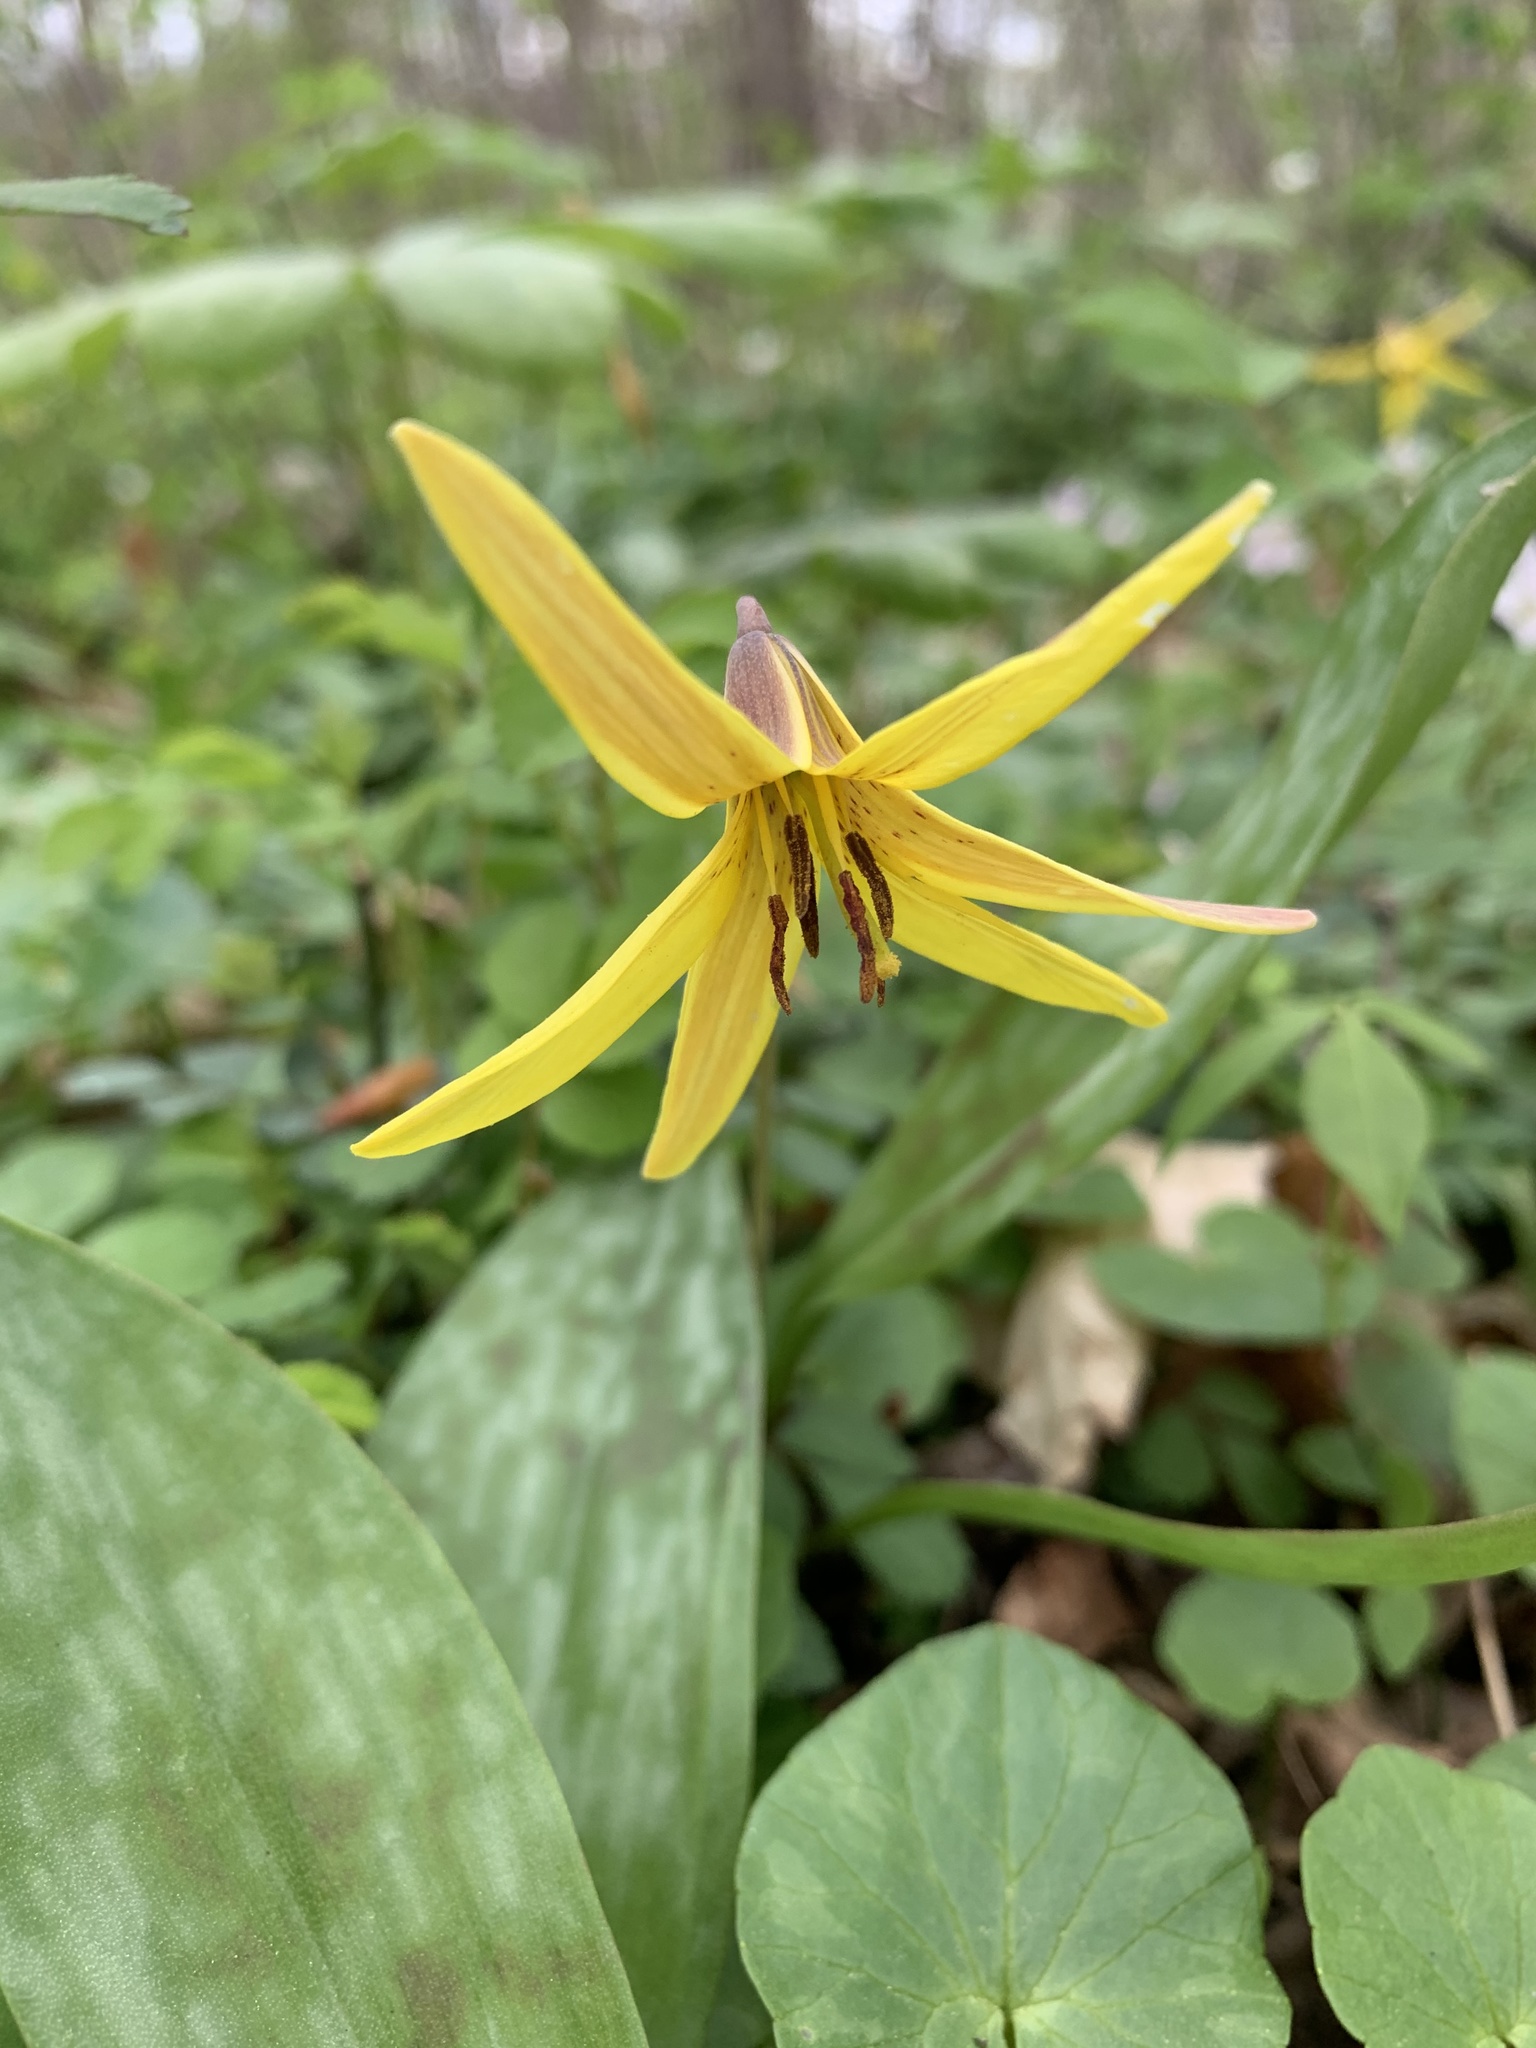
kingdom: Plantae
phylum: Tracheophyta
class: Liliopsida
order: Liliales
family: Liliaceae
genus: Erythronium
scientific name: Erythronium americanum
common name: Yellow adder's-tongue
